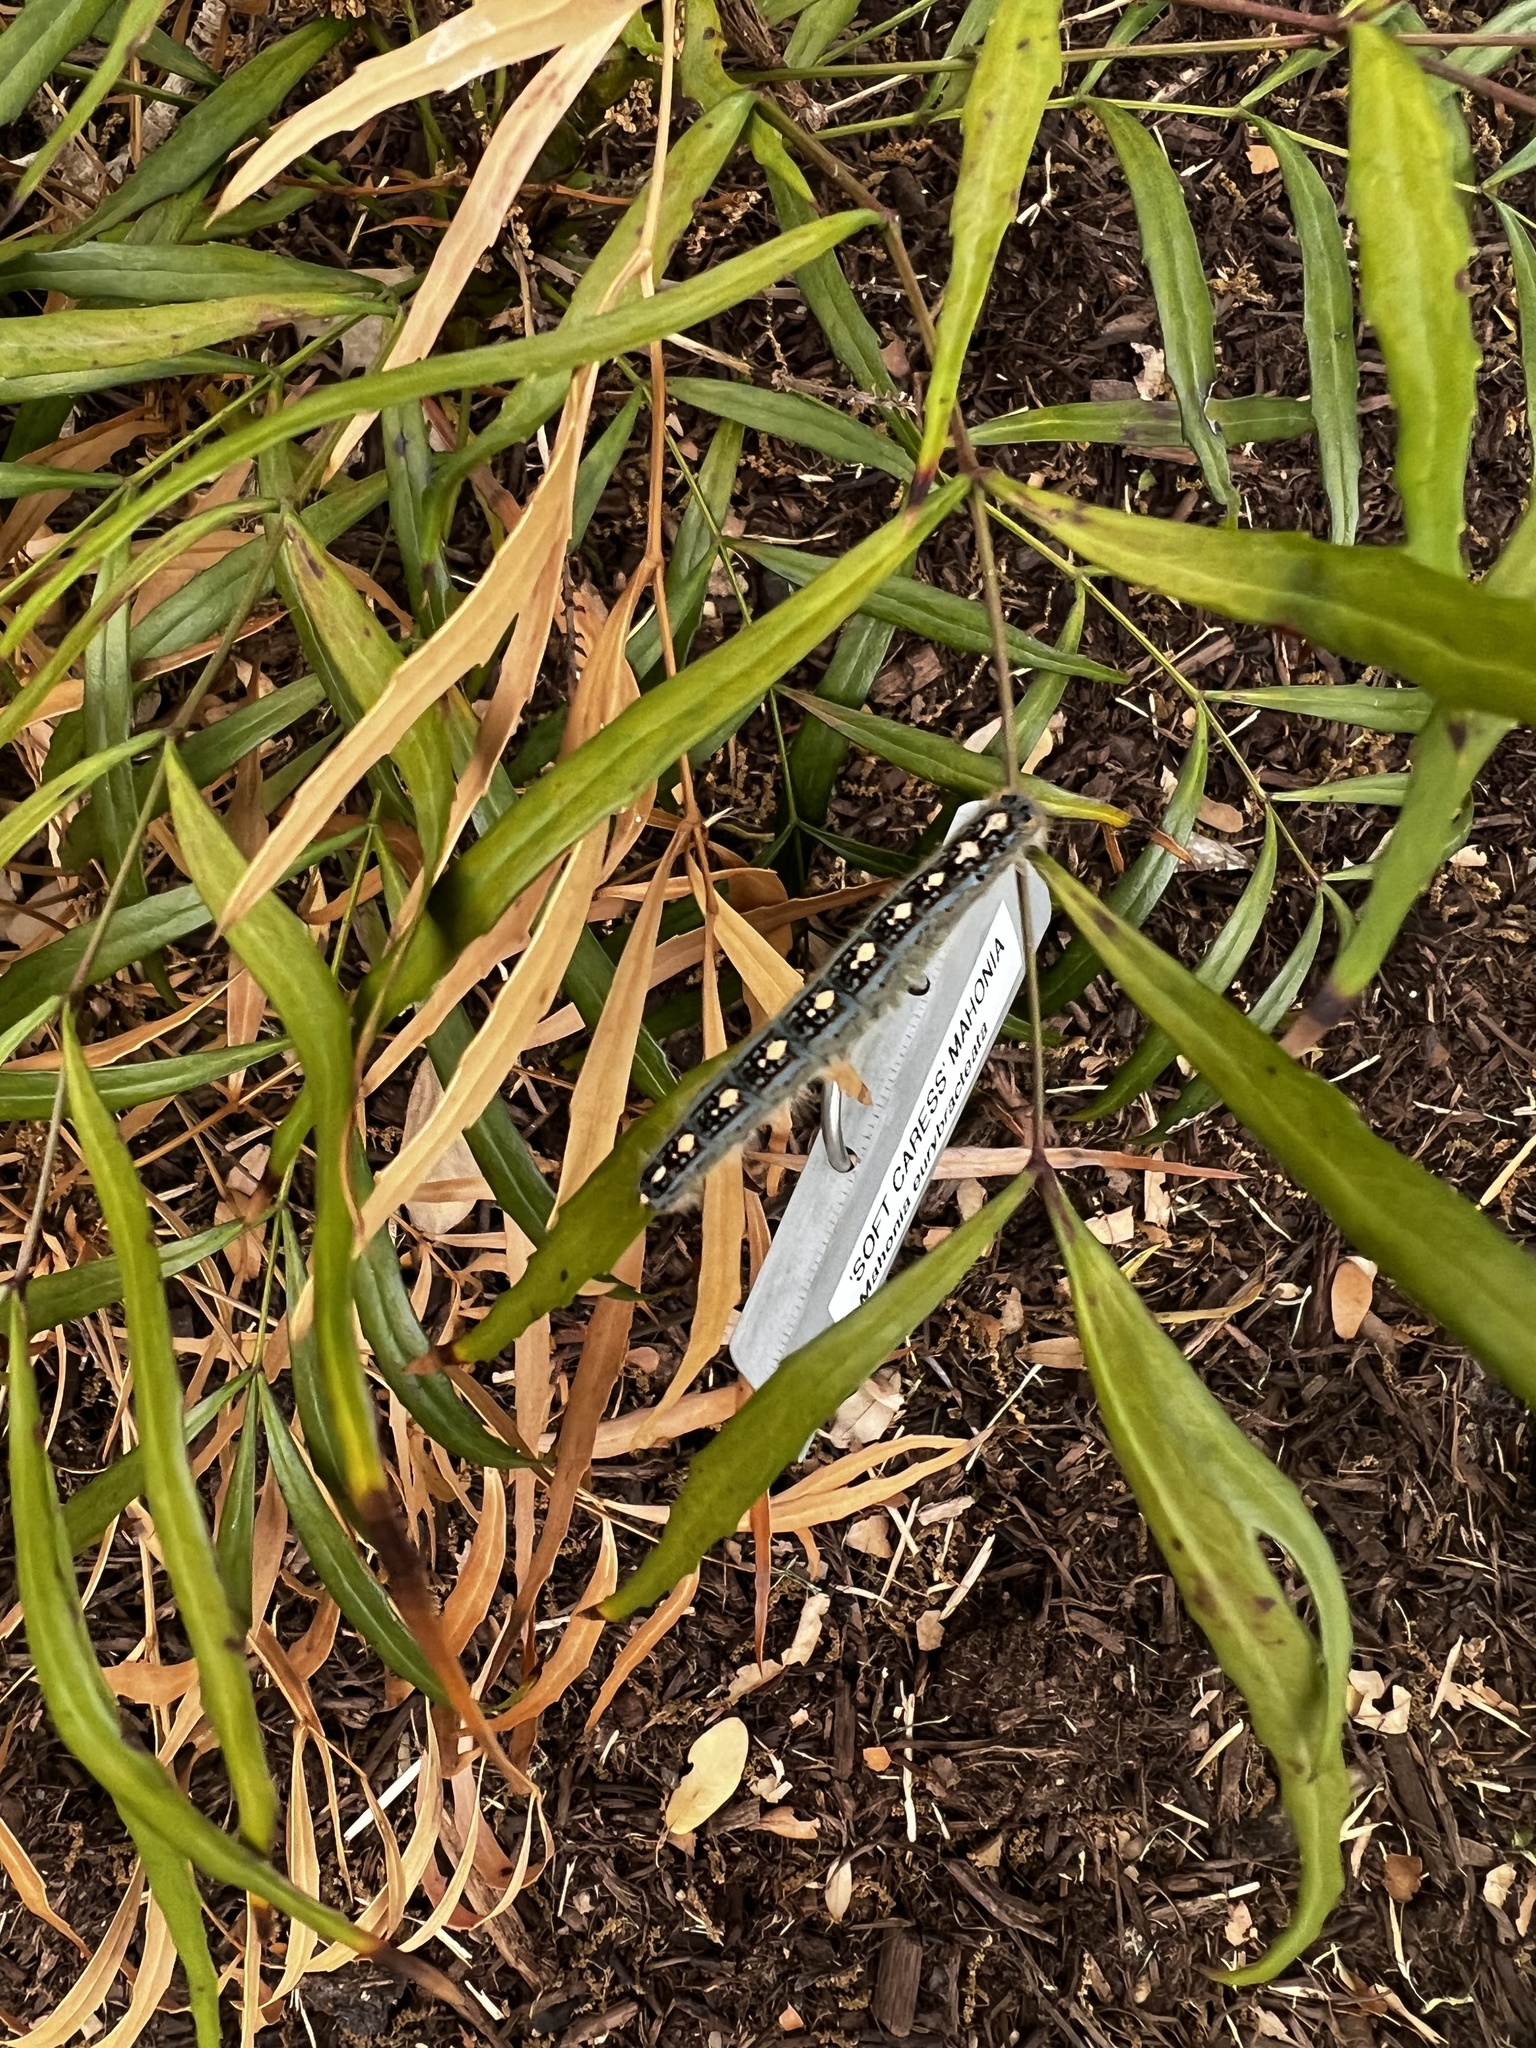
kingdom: Animalia
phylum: Arthropoda
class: Insecta
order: Lepidoptera
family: Lasiocampidae
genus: Malacosoma
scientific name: Malacosoma disstria
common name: Forest tent caterpillar
